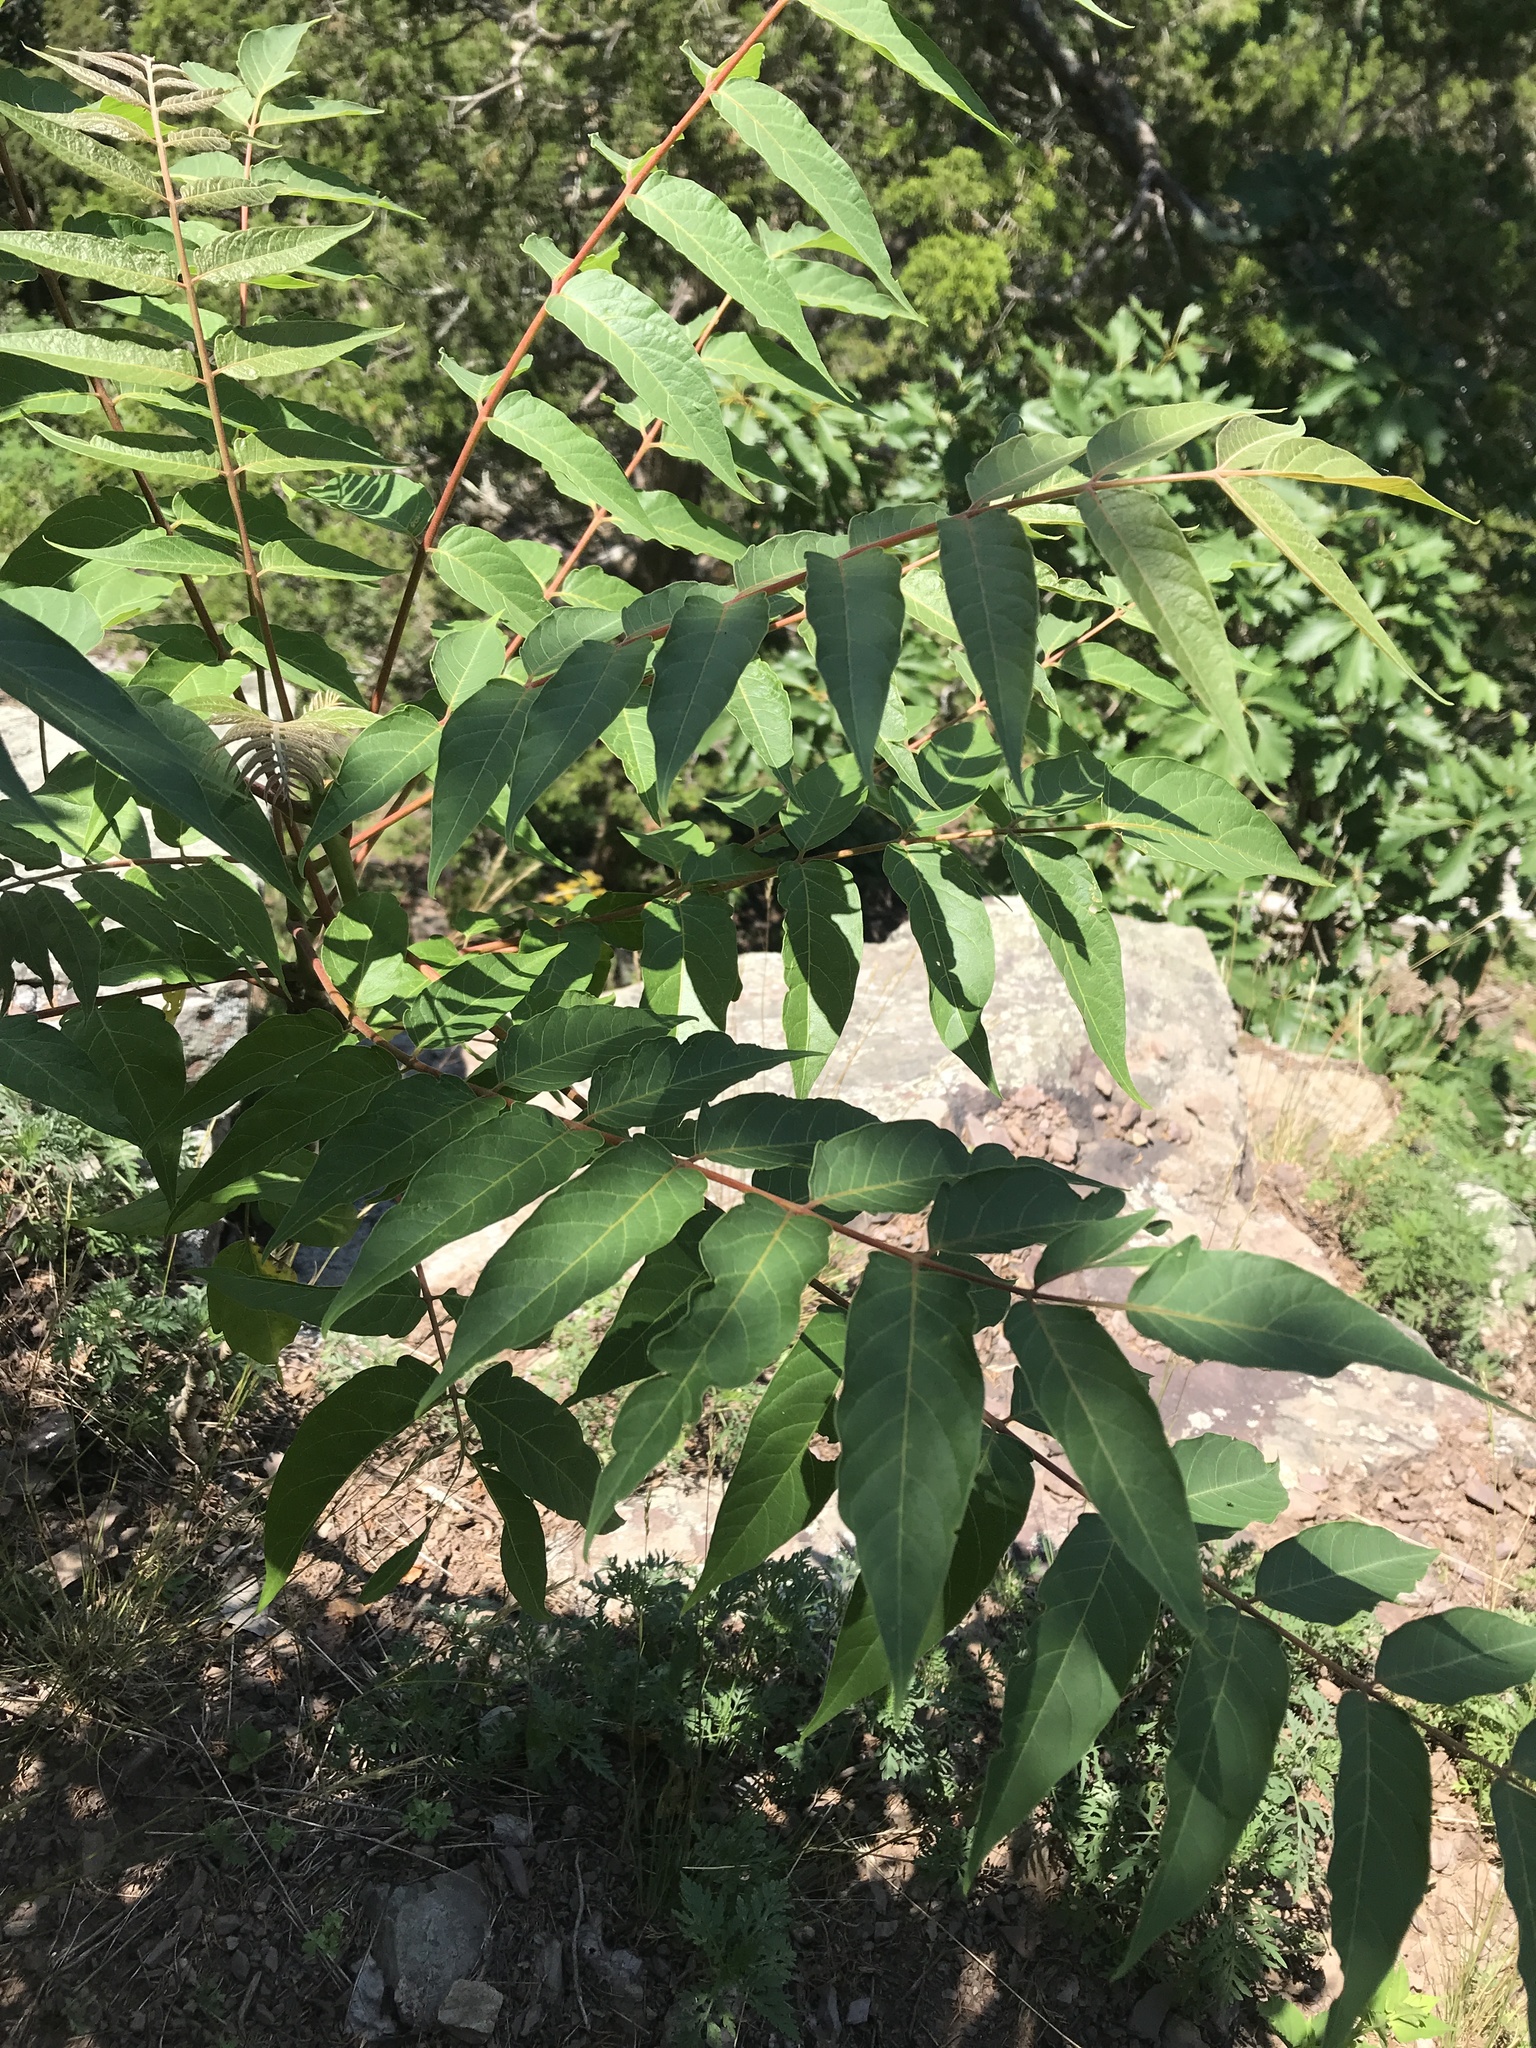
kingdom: Plantae
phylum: Tracheophyta
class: Magnoliopsida
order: Sapindales
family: Simaroubaceae
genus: Ailanthus
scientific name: Ailanthus altissima
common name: Tree-of-heaven
